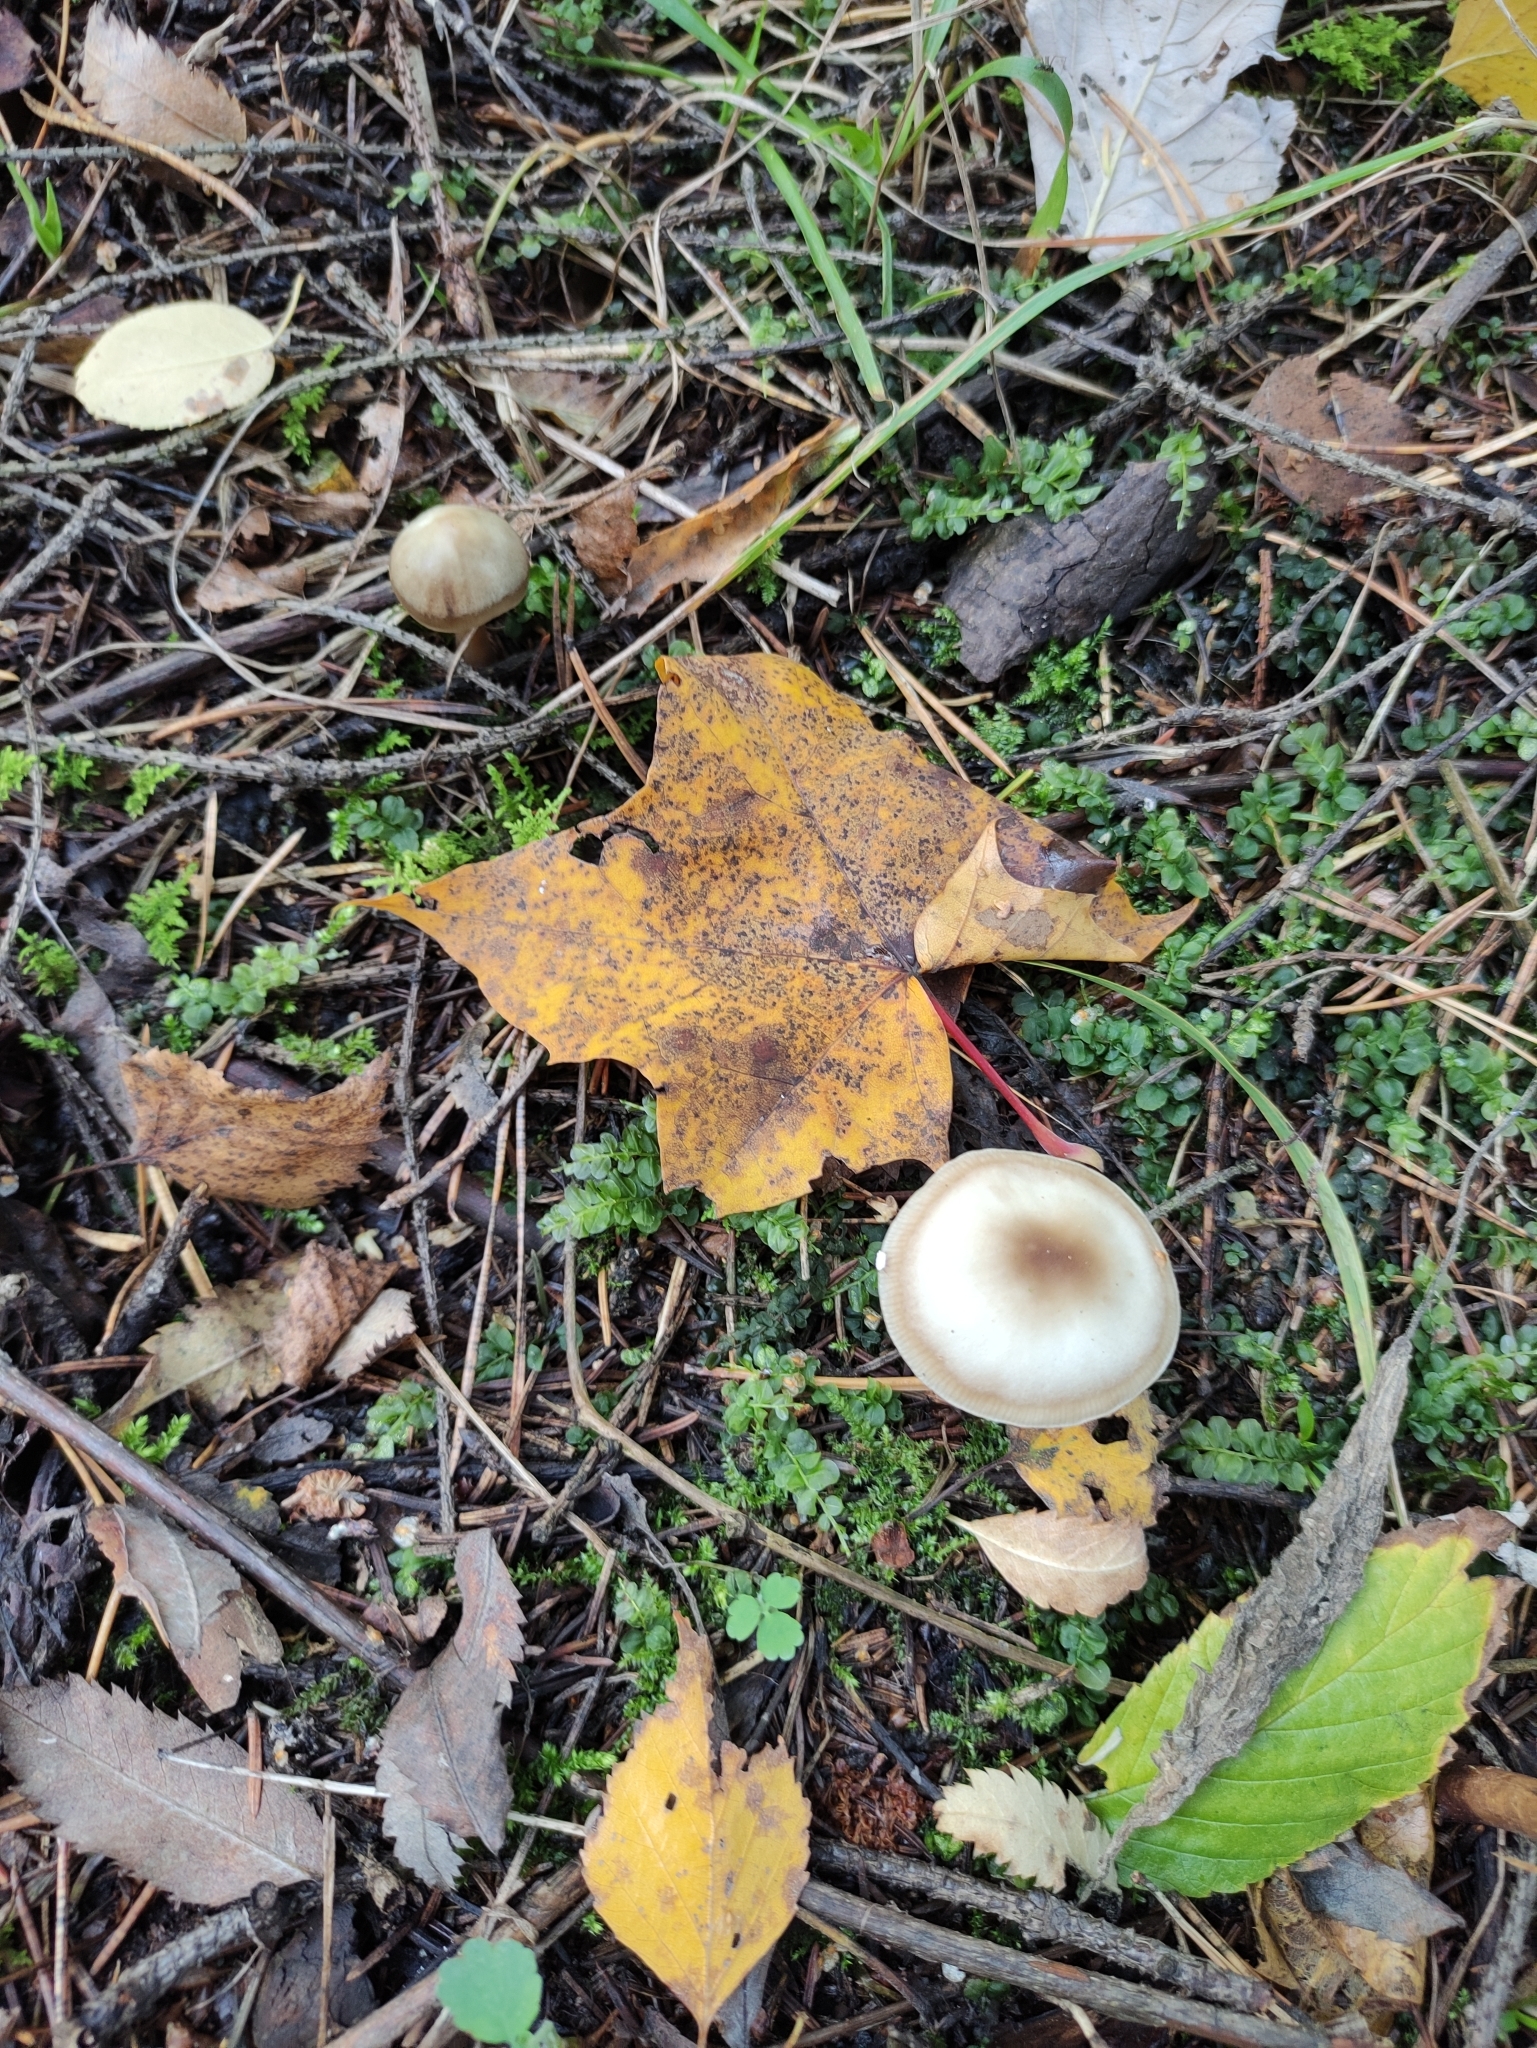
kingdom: Fungi
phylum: Basidiomycota
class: Agaricomycetes
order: Agaricales
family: Omphalotaceae
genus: Rhodocollybia
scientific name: Rhodocollybia asema
